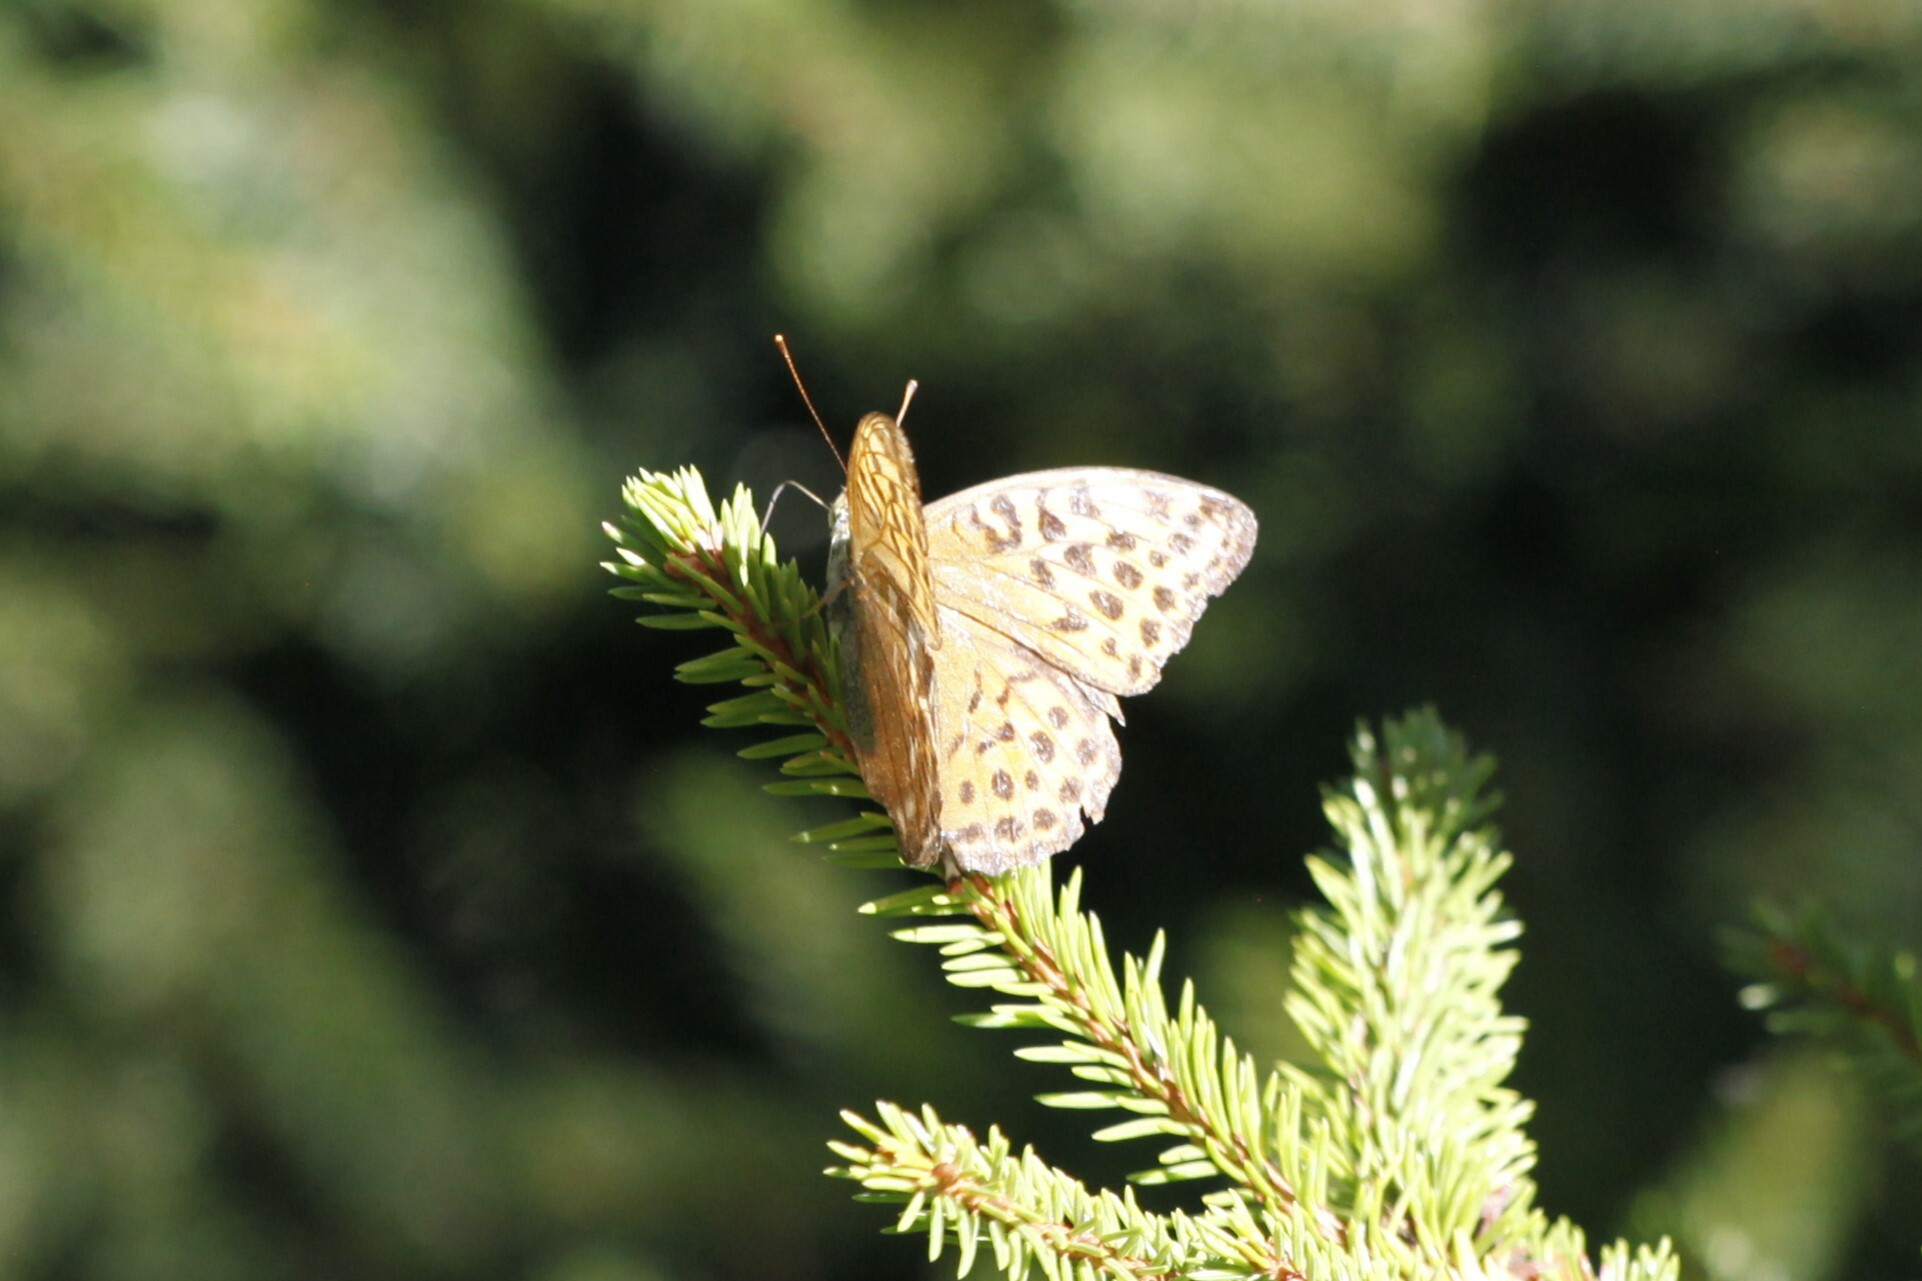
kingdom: Animalia
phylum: Arthropoda
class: Insecta
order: Lepidoptera
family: Nymphalidae
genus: Argynnis
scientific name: Argynnis paphia
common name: Silver-washed fritillary
